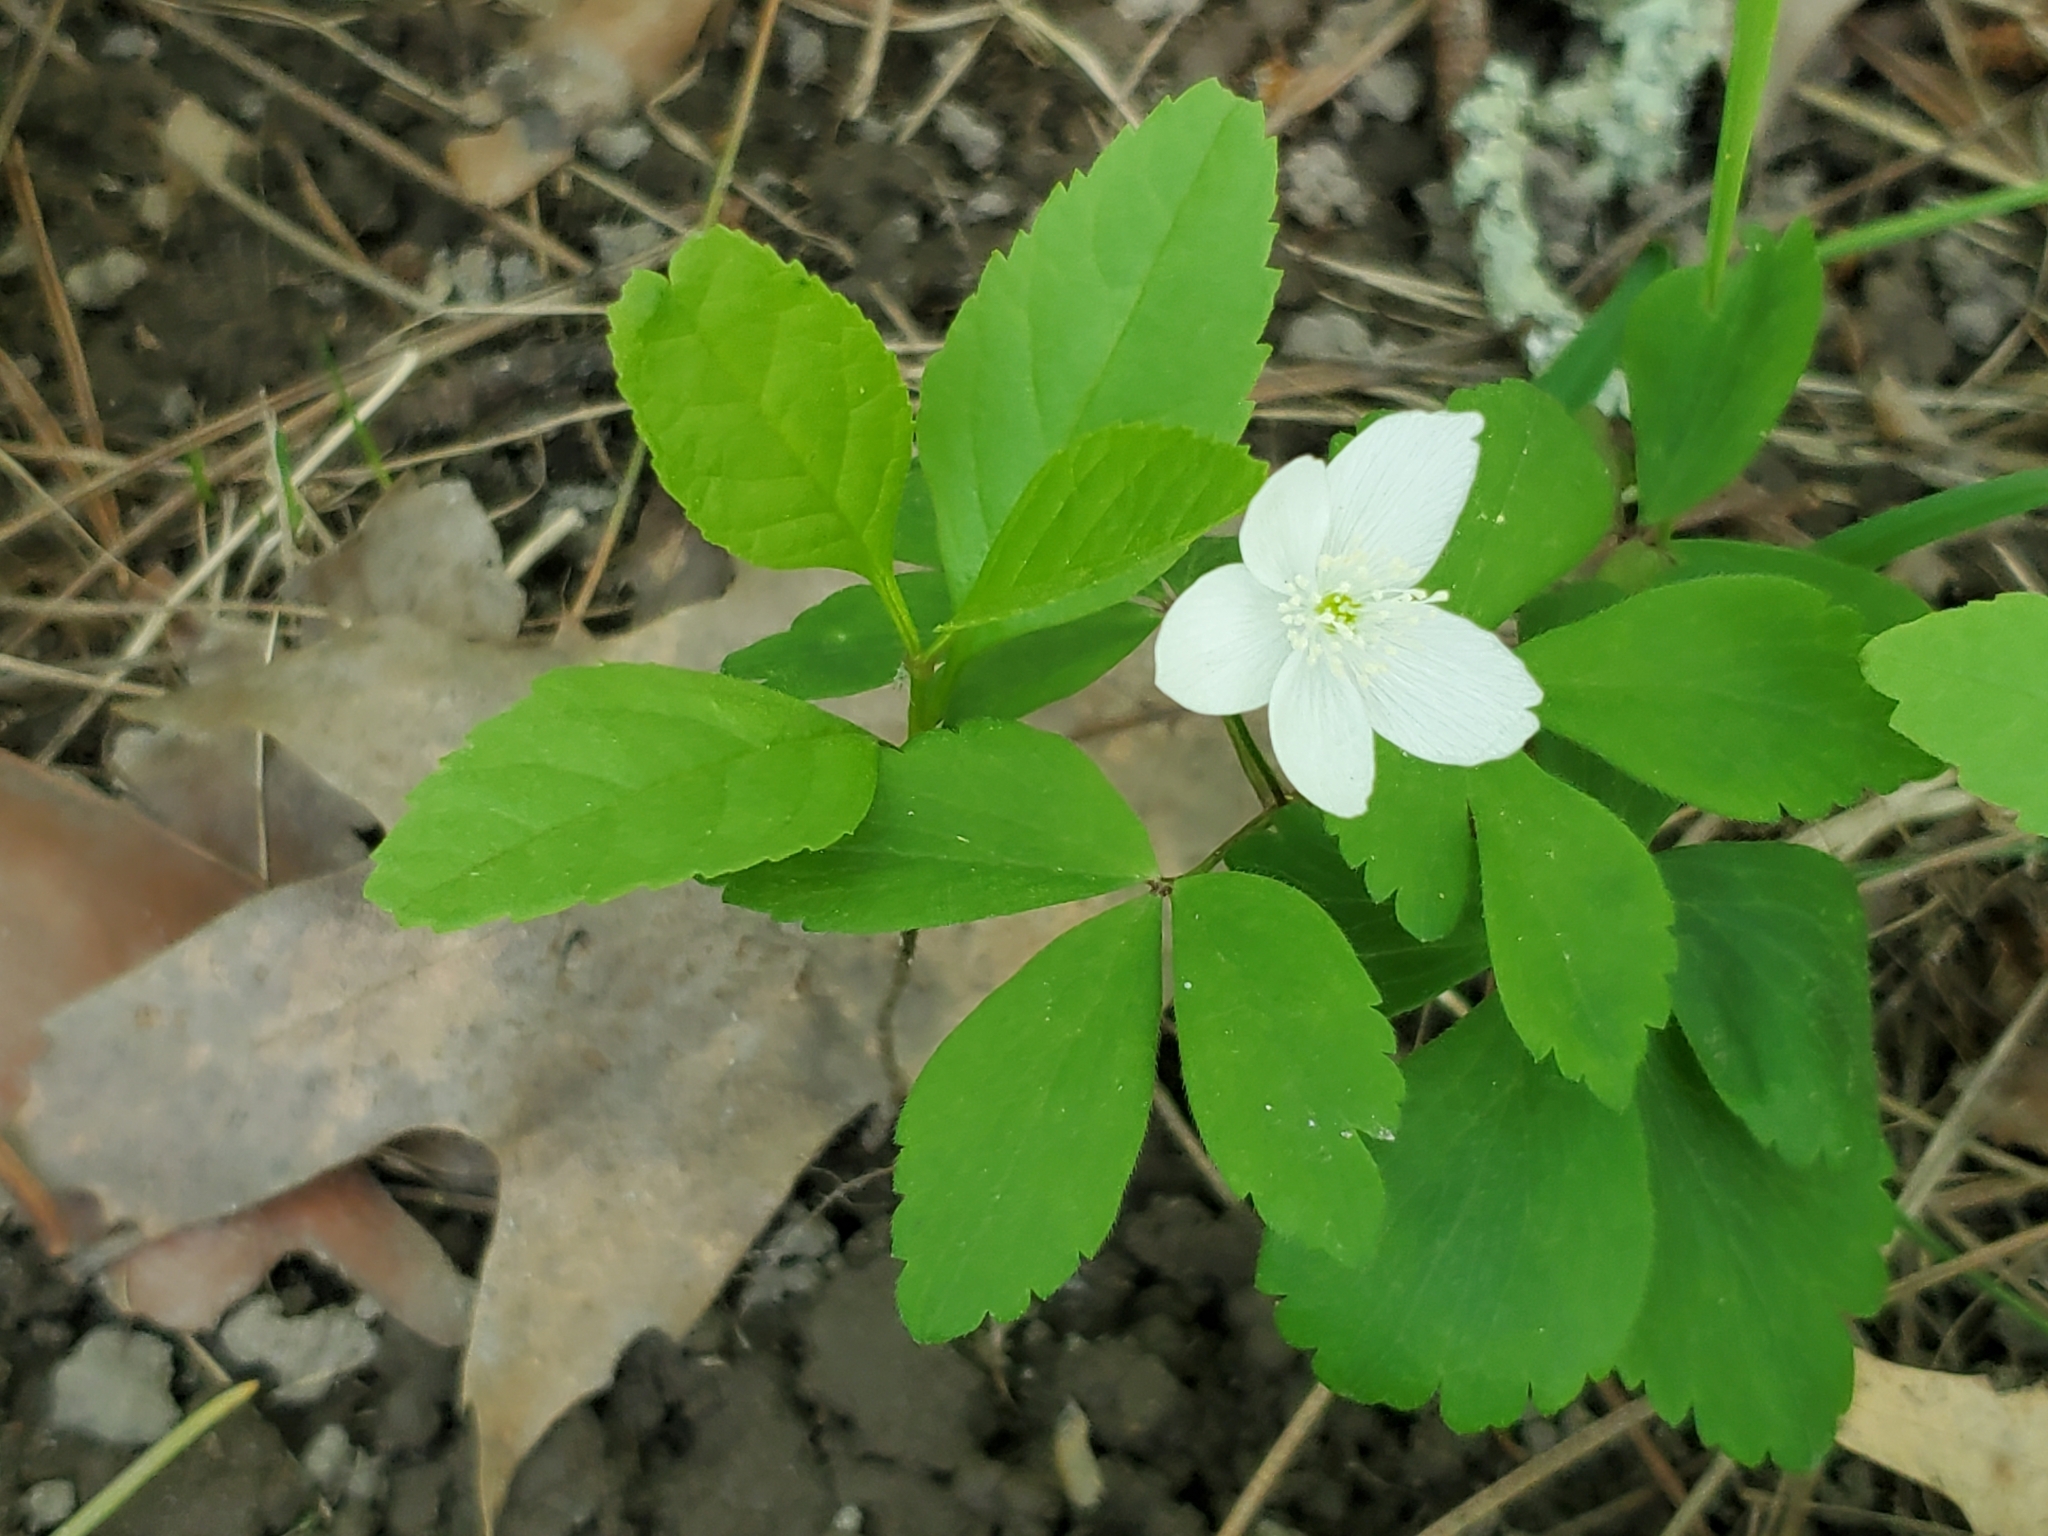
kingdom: Plantae
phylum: Tracheophyta
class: Magnoliopsida
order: Ranunculales
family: Ranunculaceae
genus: Anemone
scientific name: Anemone quinquefolia
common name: Wood anemone
